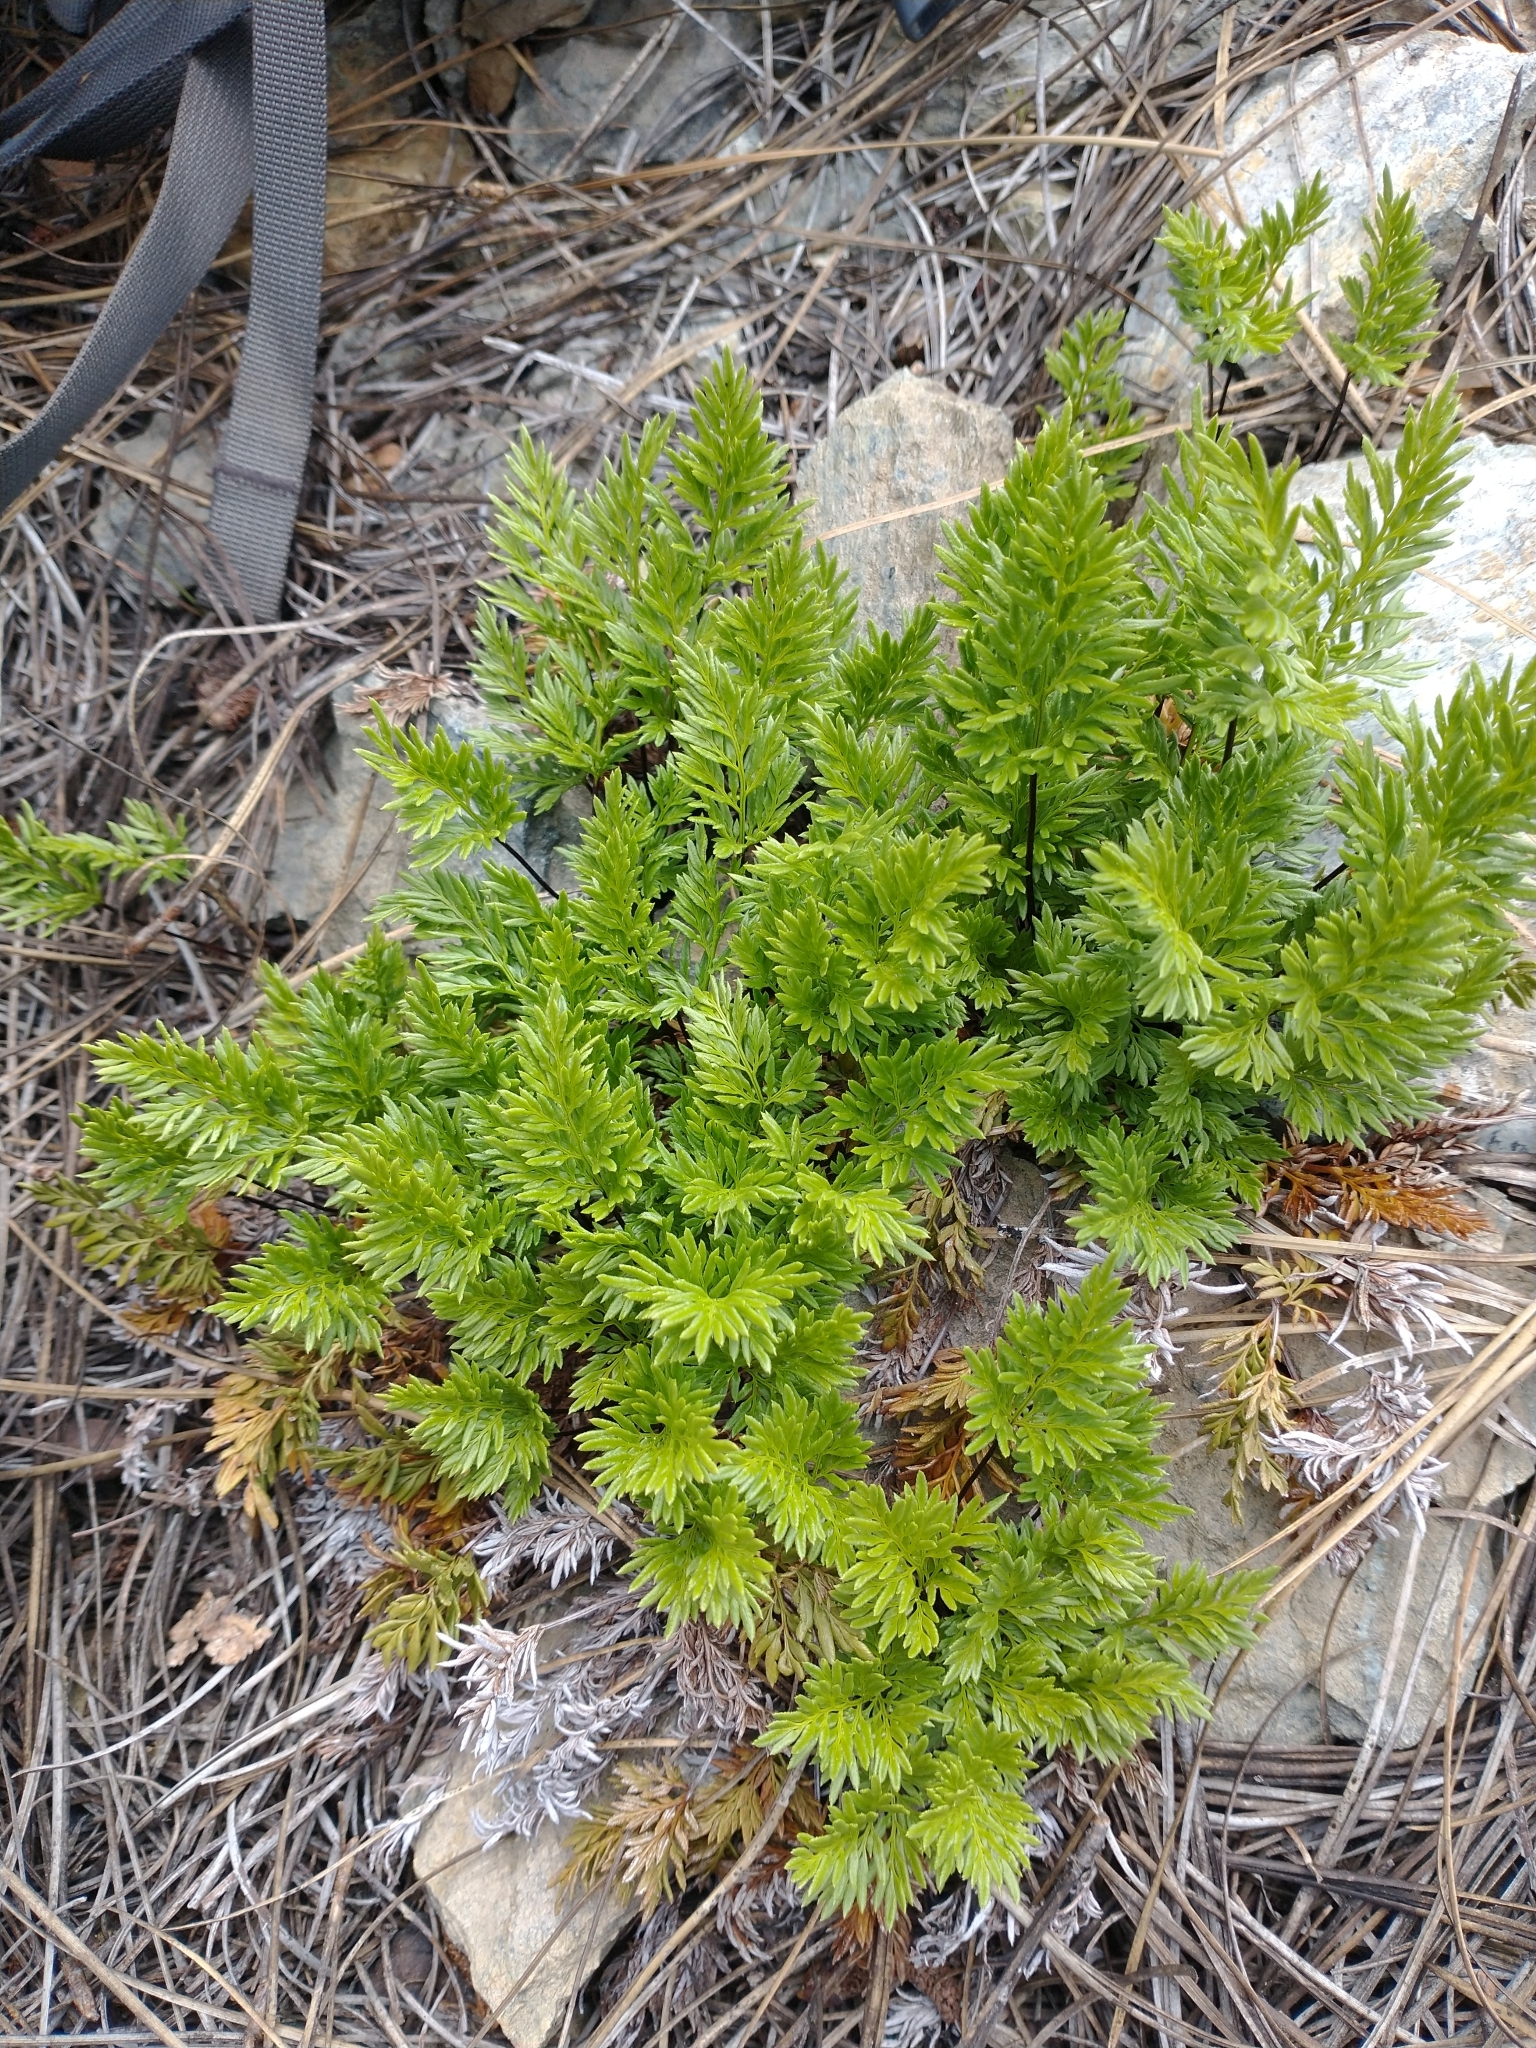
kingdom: Plantae
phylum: Tracheophyta
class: Polypodiopsida
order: Polypodiales
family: Pteridaceae
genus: Aspidotis
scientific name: Aspidotis densa
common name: Indian's dream
